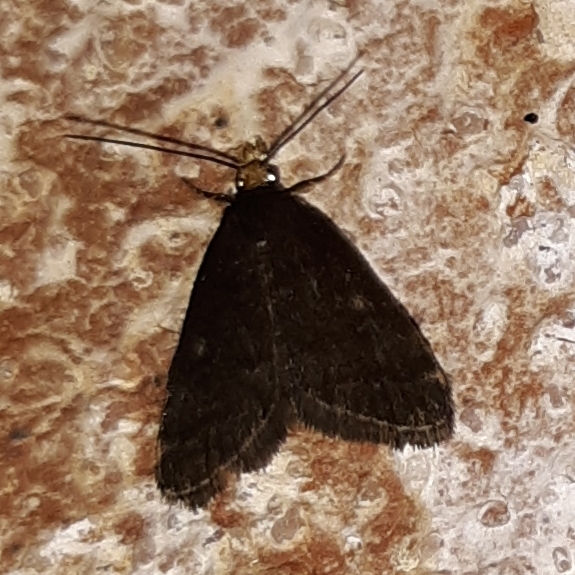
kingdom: Animalia
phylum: Arthropoda
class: Insecta
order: Lepidoptera
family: Crambidae
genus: Pyrausta
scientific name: Pyrausta merrickalis
